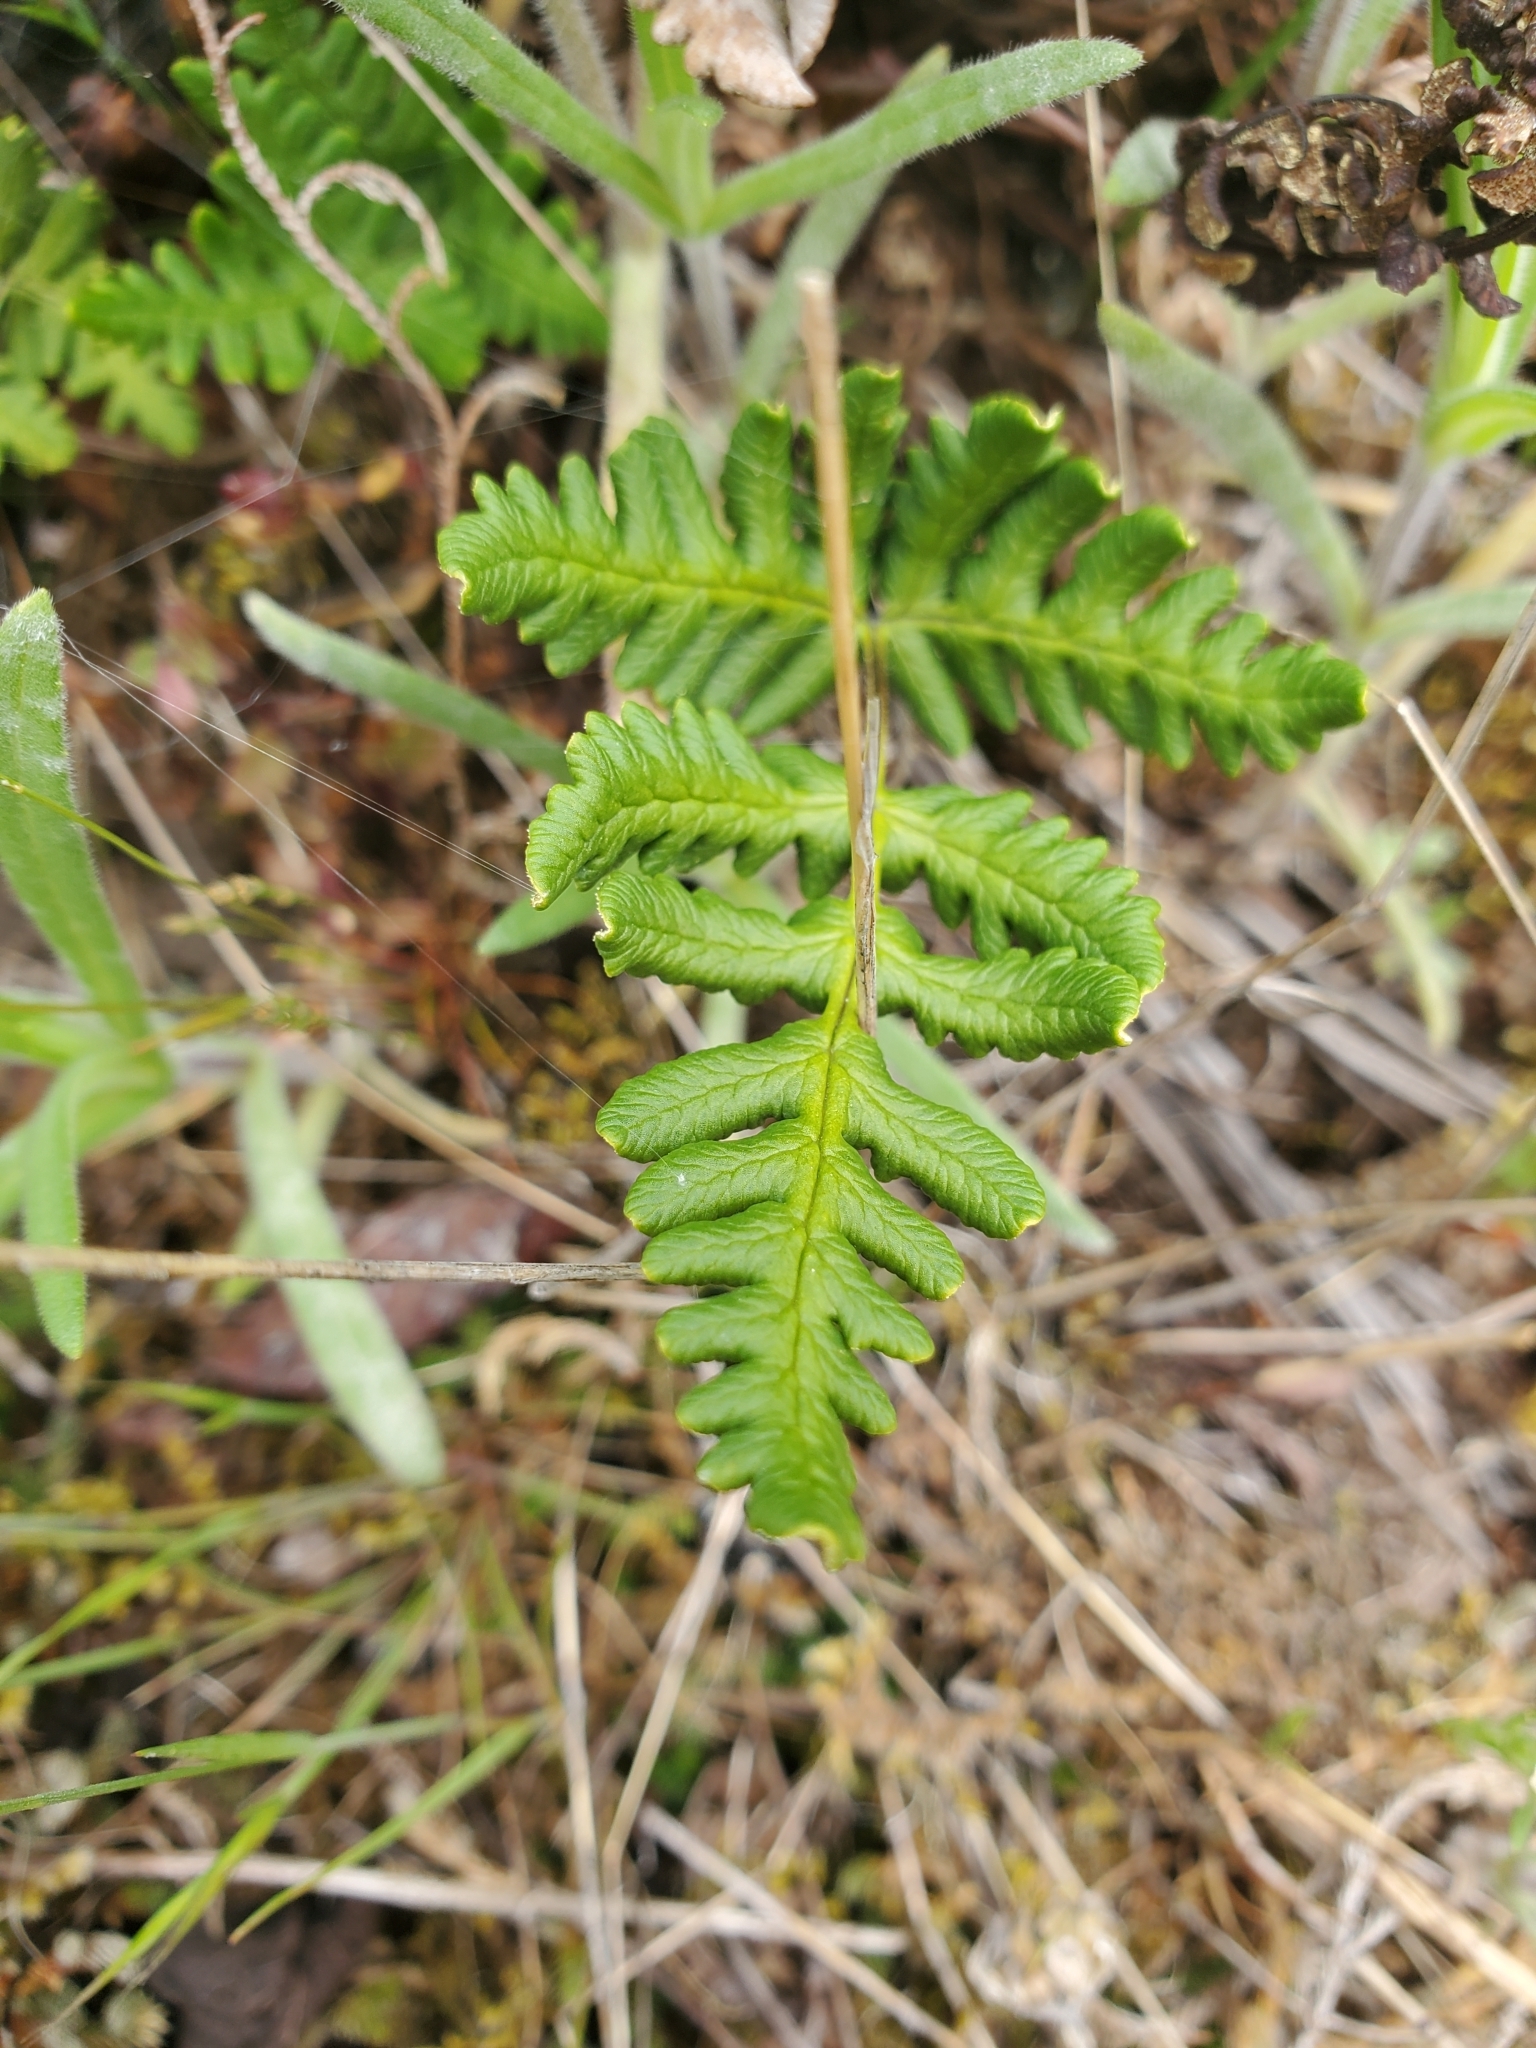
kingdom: Plantae
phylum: Tracheophyta
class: Polypodiopsida
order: Polypodiales
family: Pteridaceae
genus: Pentagramma
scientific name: Pentagramma triangularis
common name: Gold fern
